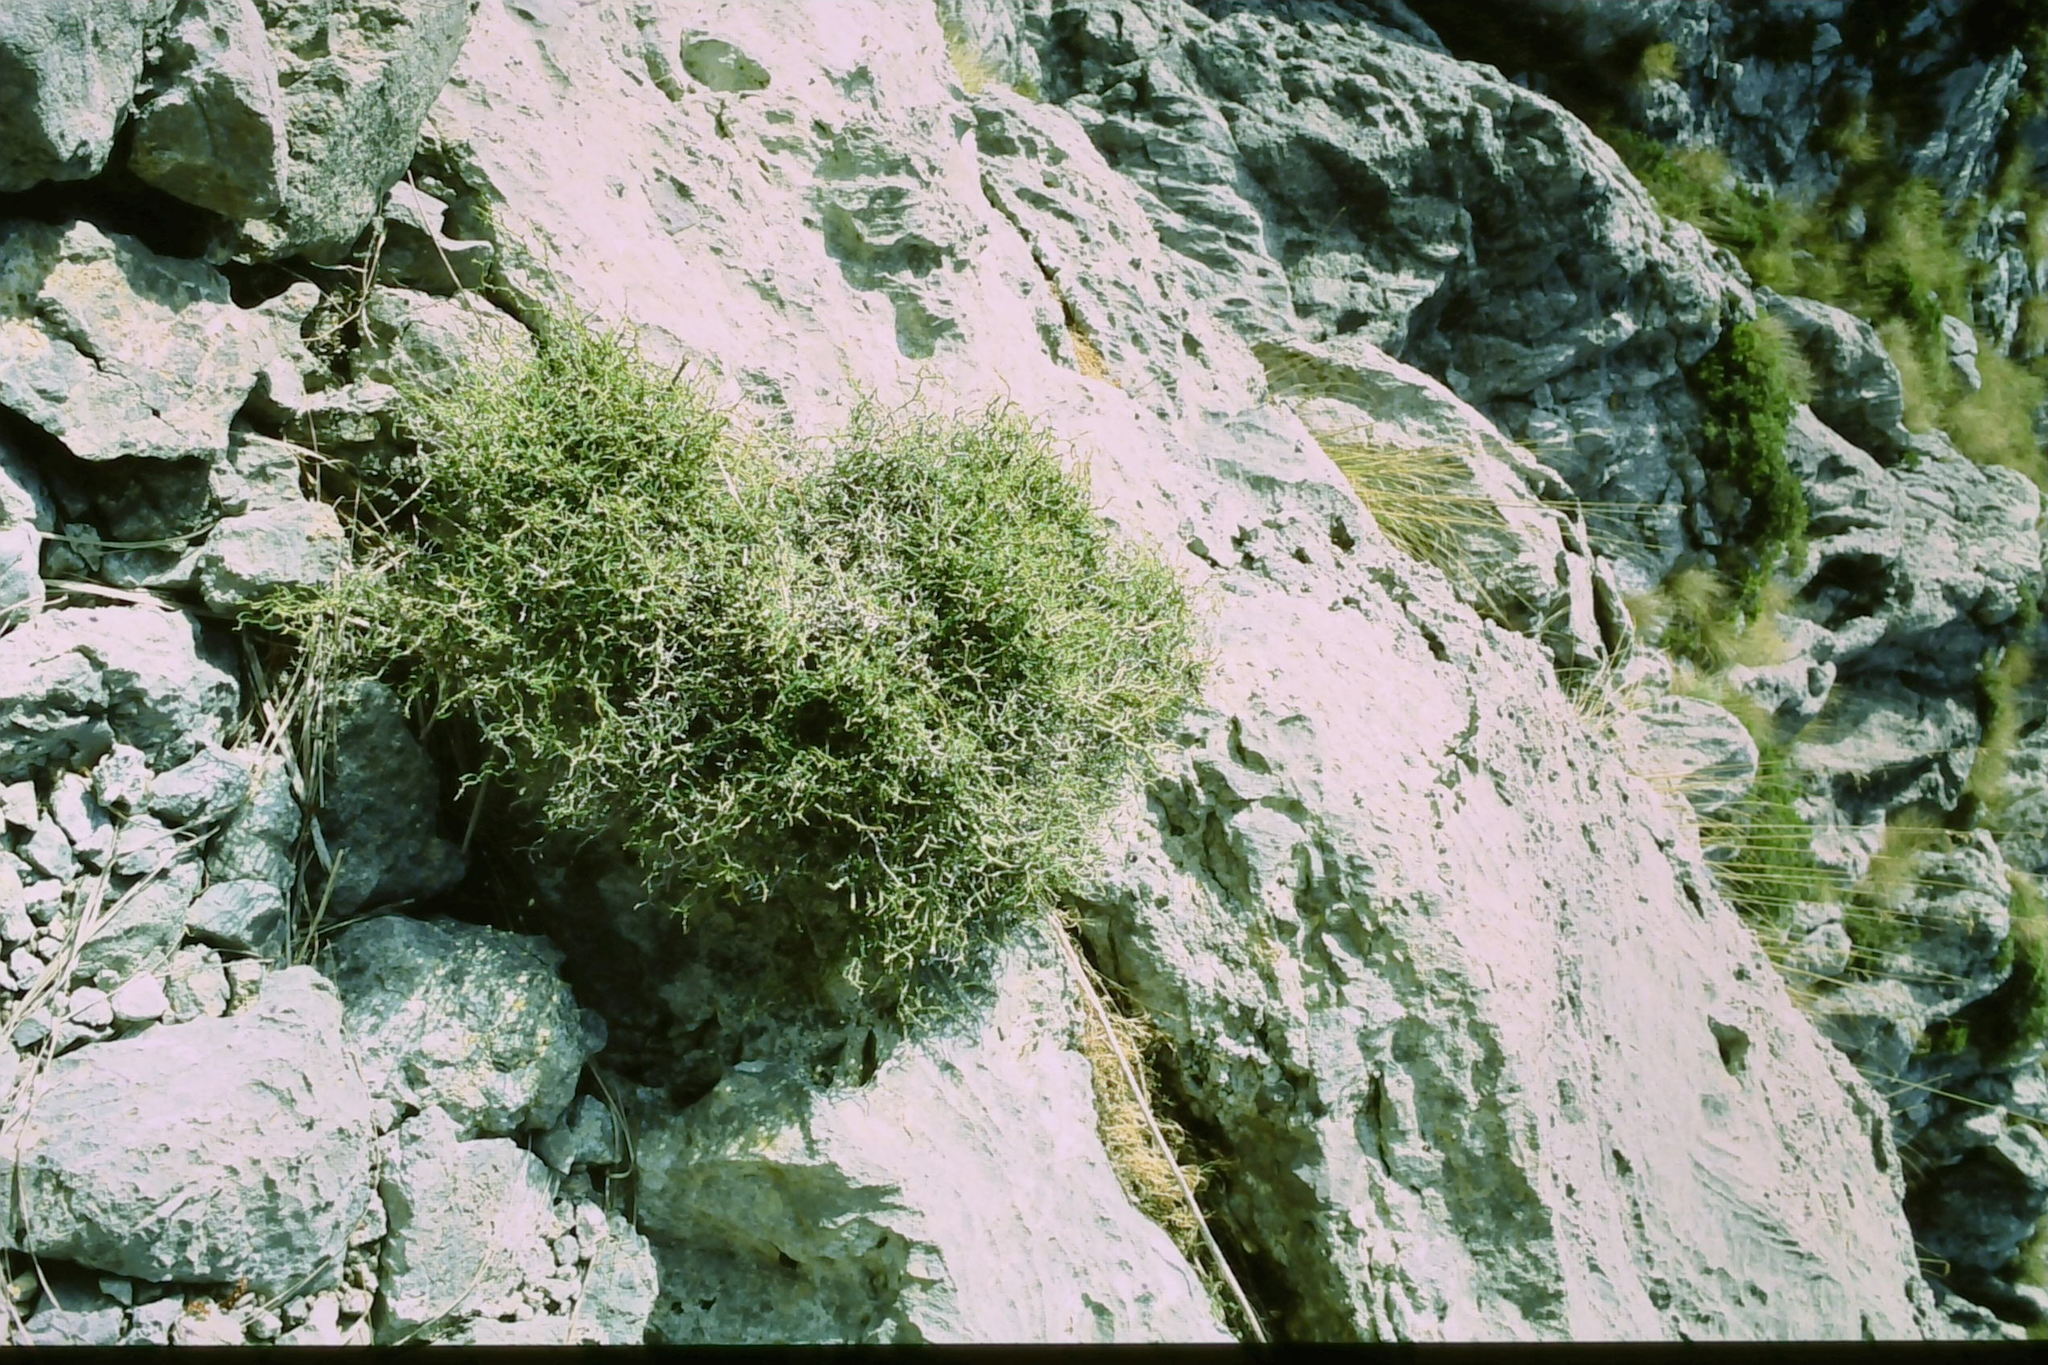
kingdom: Plantae
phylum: Tracheophyta
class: Liliopsida
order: Liliales
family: Smilacaceae
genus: Smilax
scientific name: Smilax aspera
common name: Common smilax
